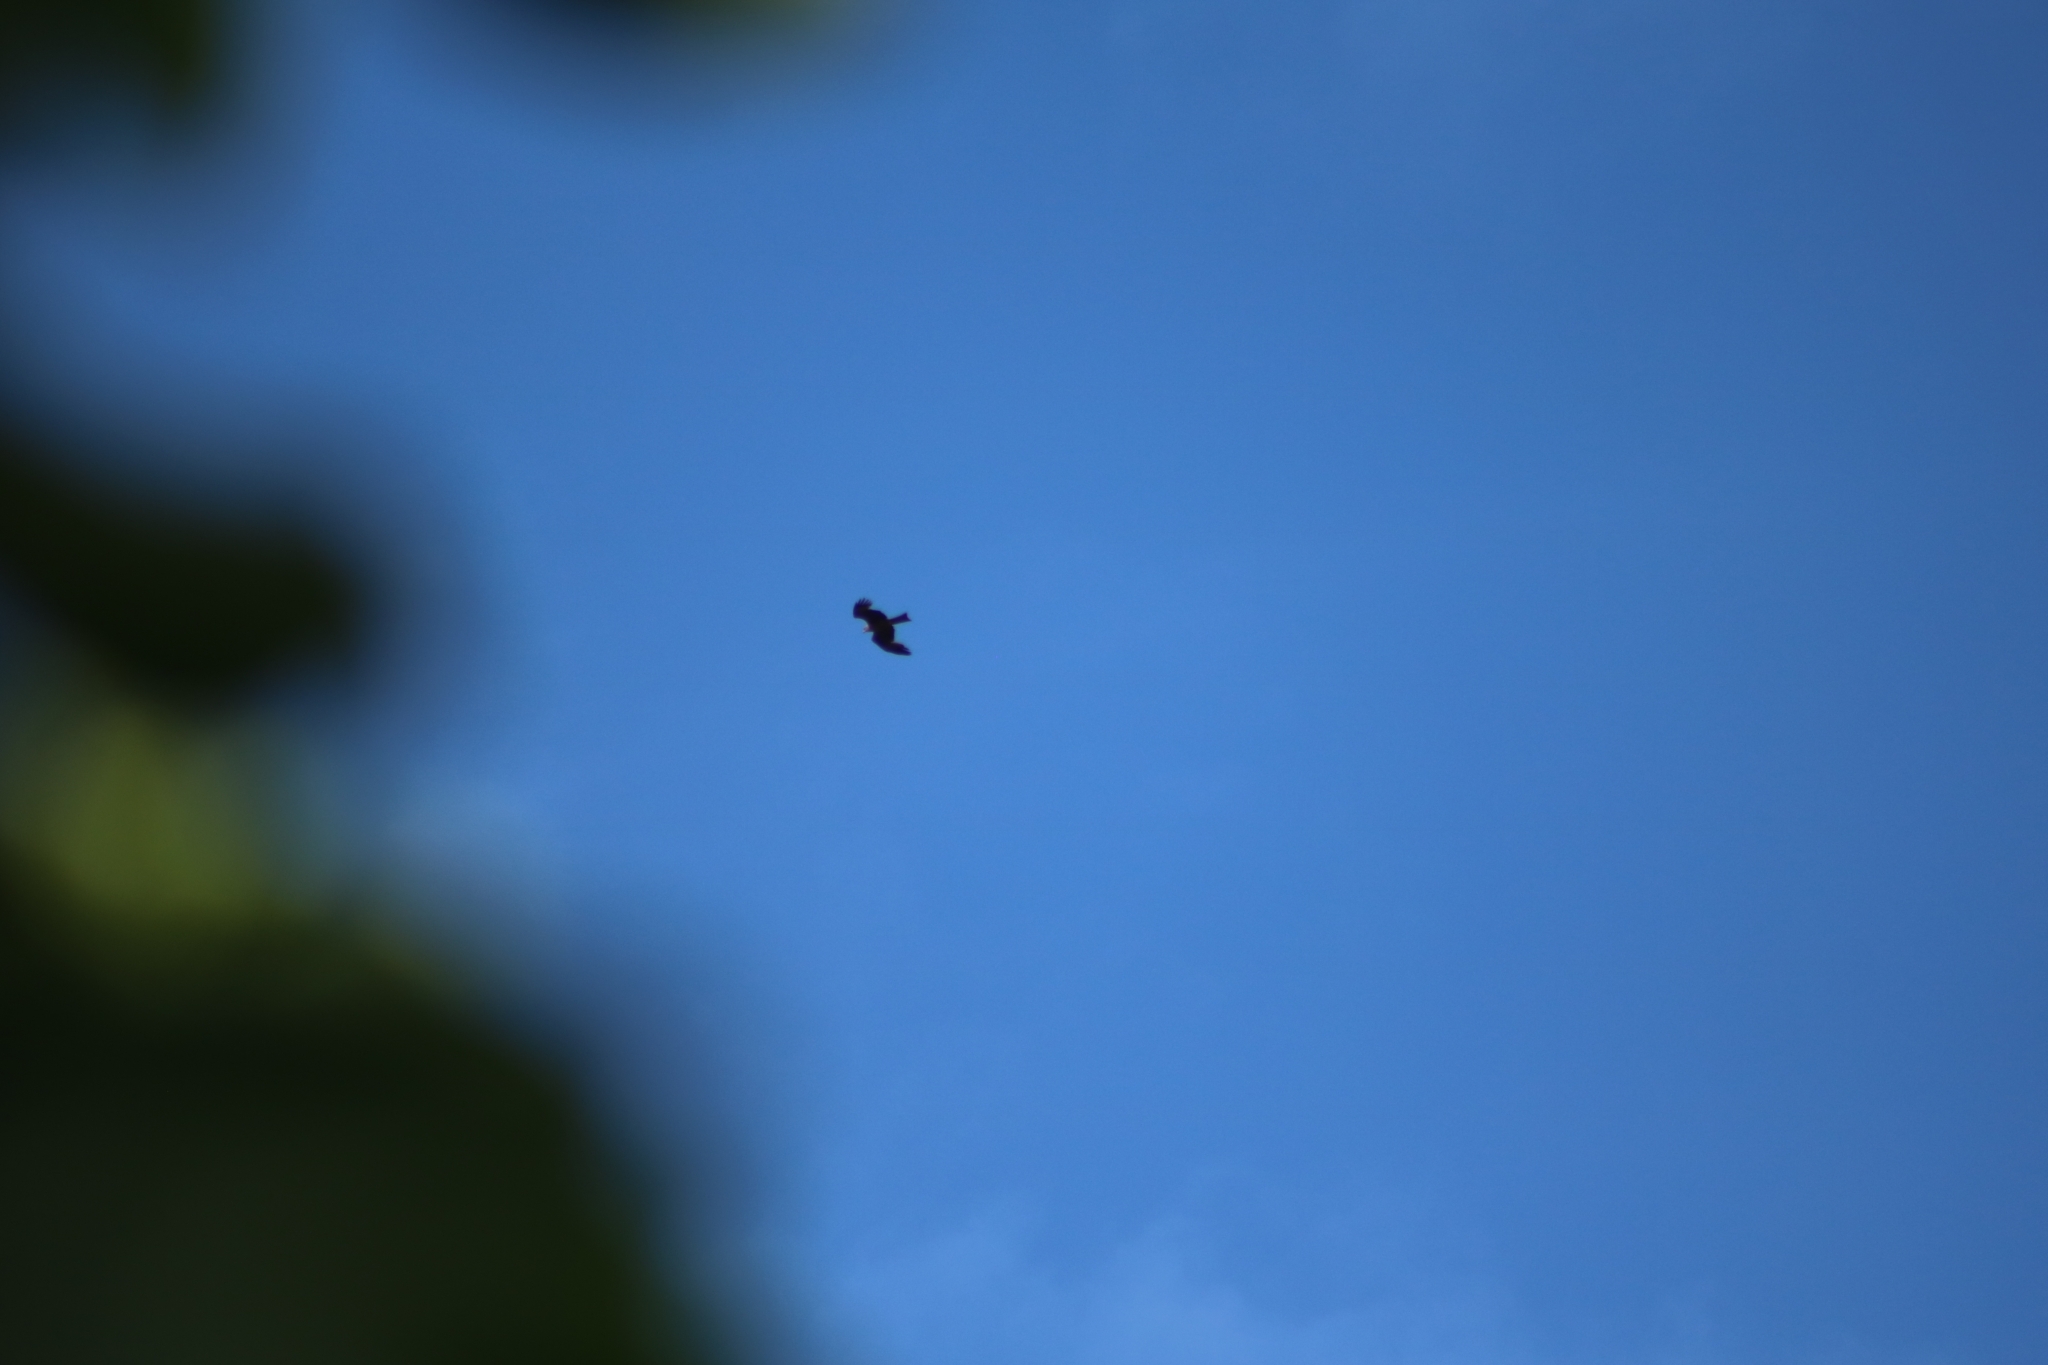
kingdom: Animalia
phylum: Chordata
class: Aves
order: Accipitriformes
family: Accipitridae
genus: Milvus
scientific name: Milvus migrans
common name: Black kite
